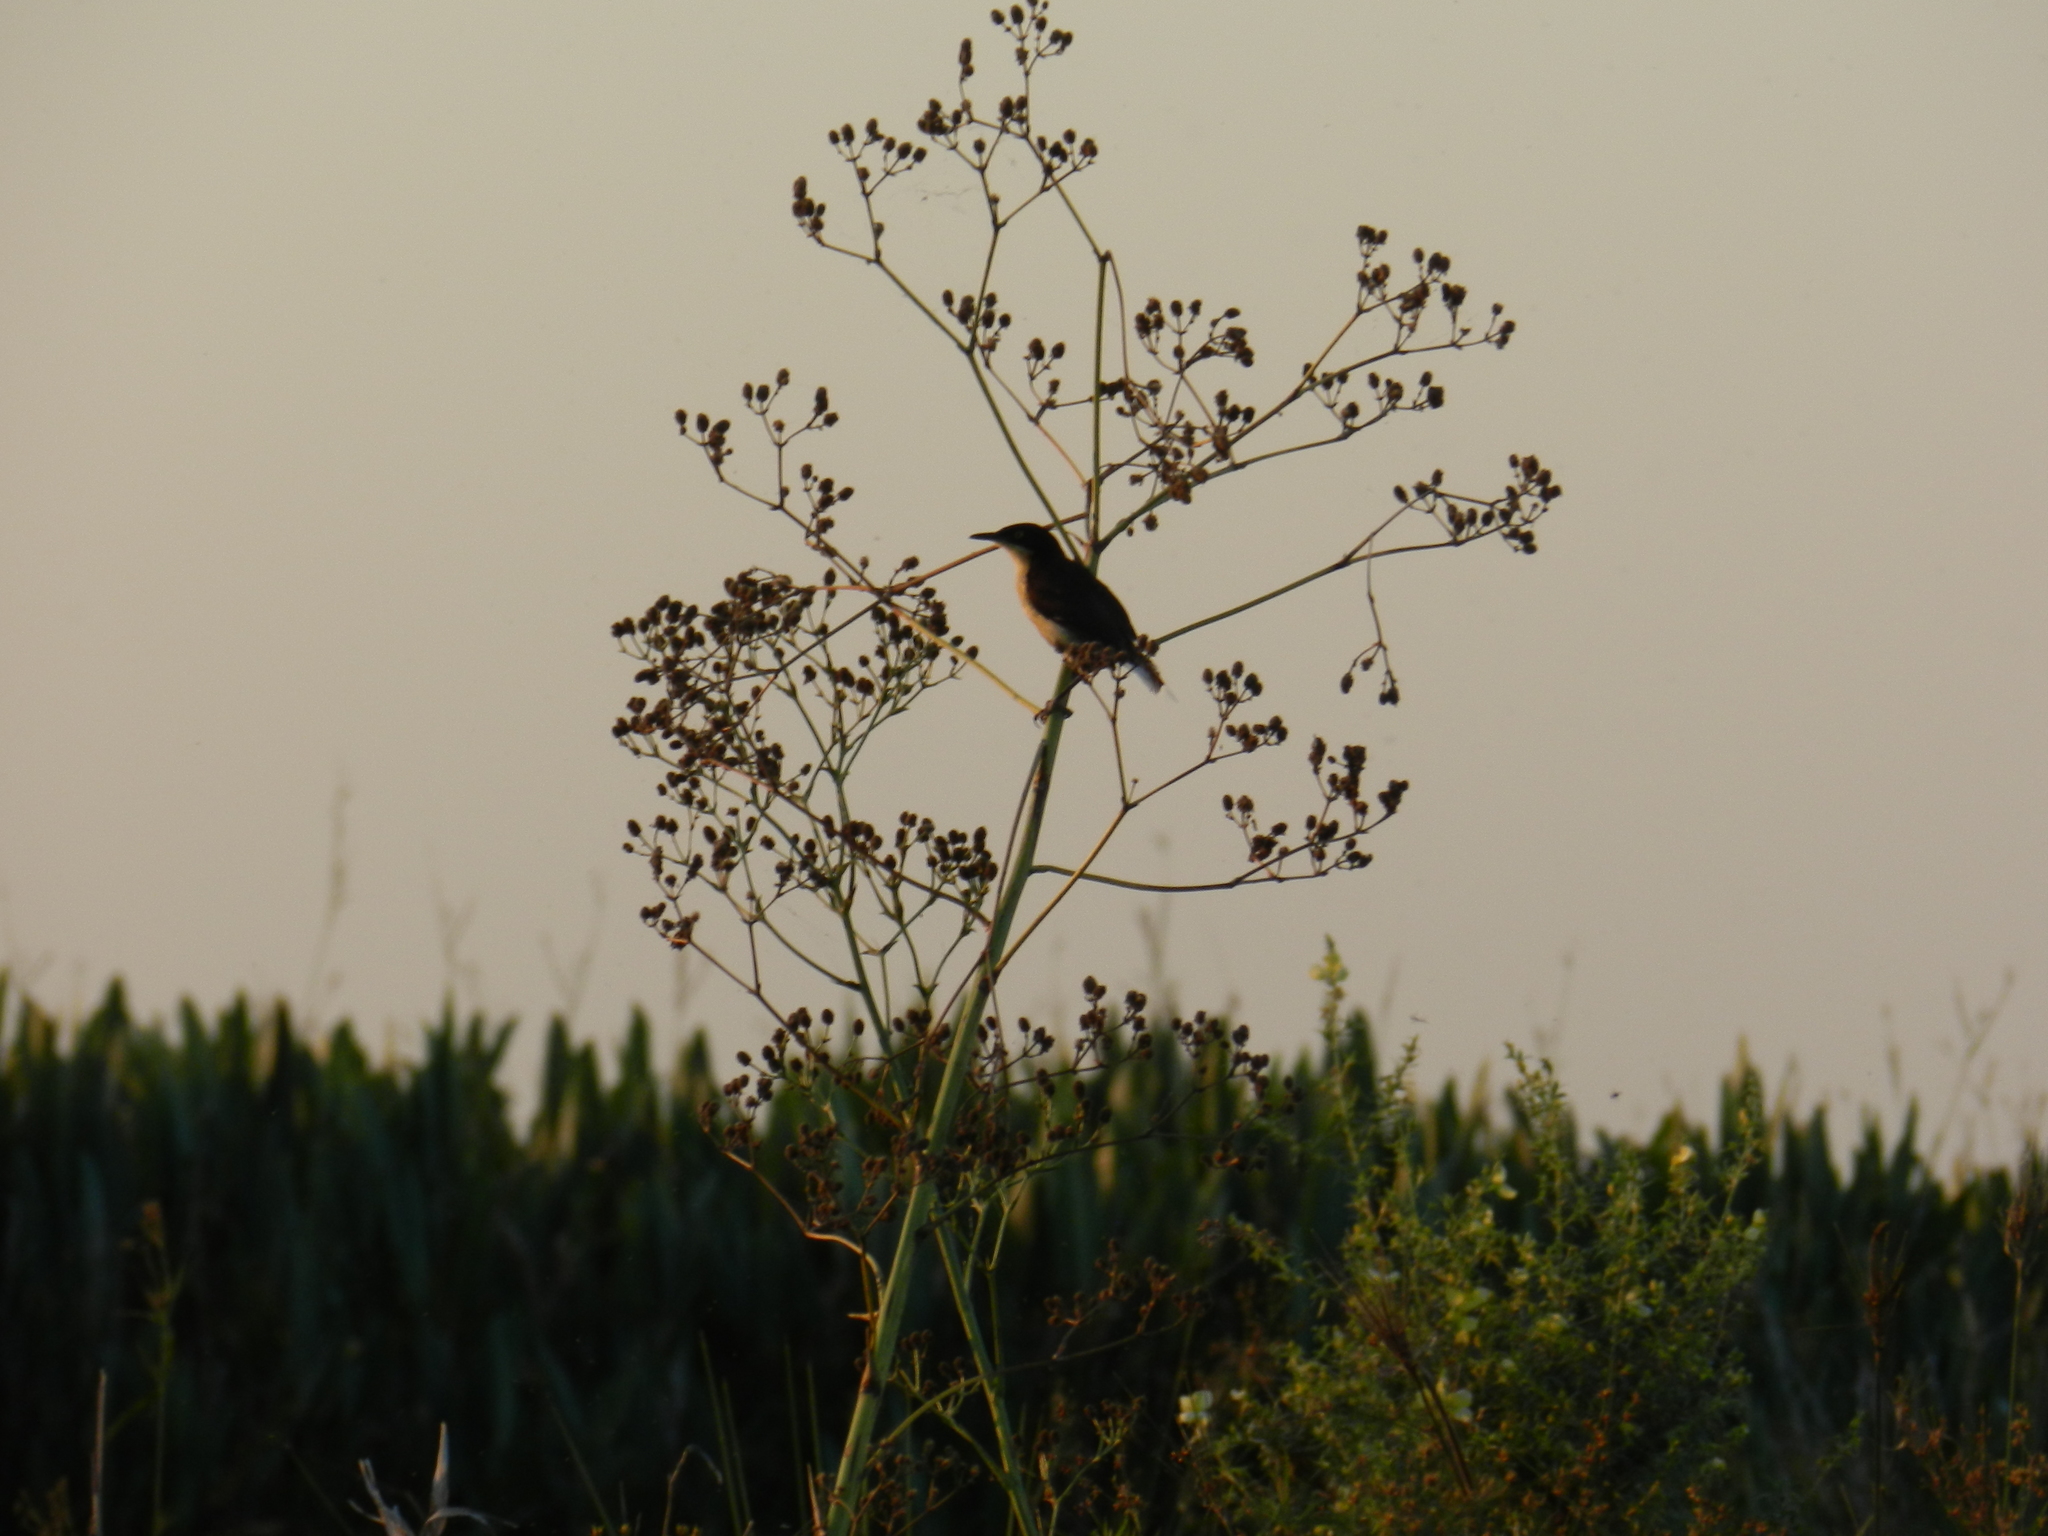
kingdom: Animalia
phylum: Chordata
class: Aves
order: Passeriformes
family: Donacobiidae
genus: Donacobius
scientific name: Donacobius atricapilla
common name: Black-capped donacobius
